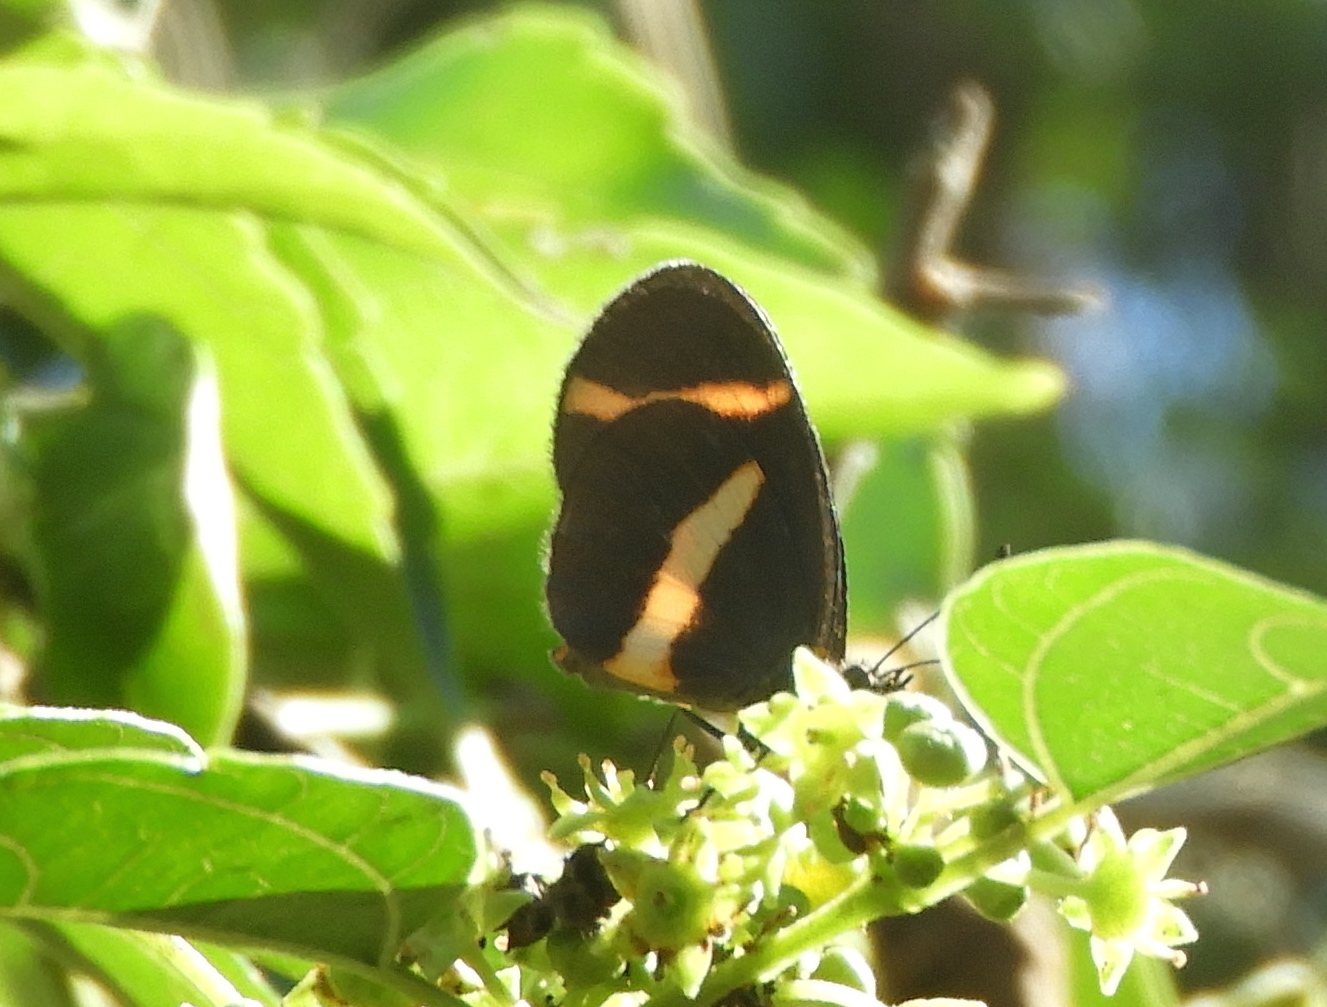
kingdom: Animalia
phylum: Arthropoda
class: Insecta
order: Lepidoptera
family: Nymphalidae
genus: Microtia
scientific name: Microtia elva
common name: Elf
